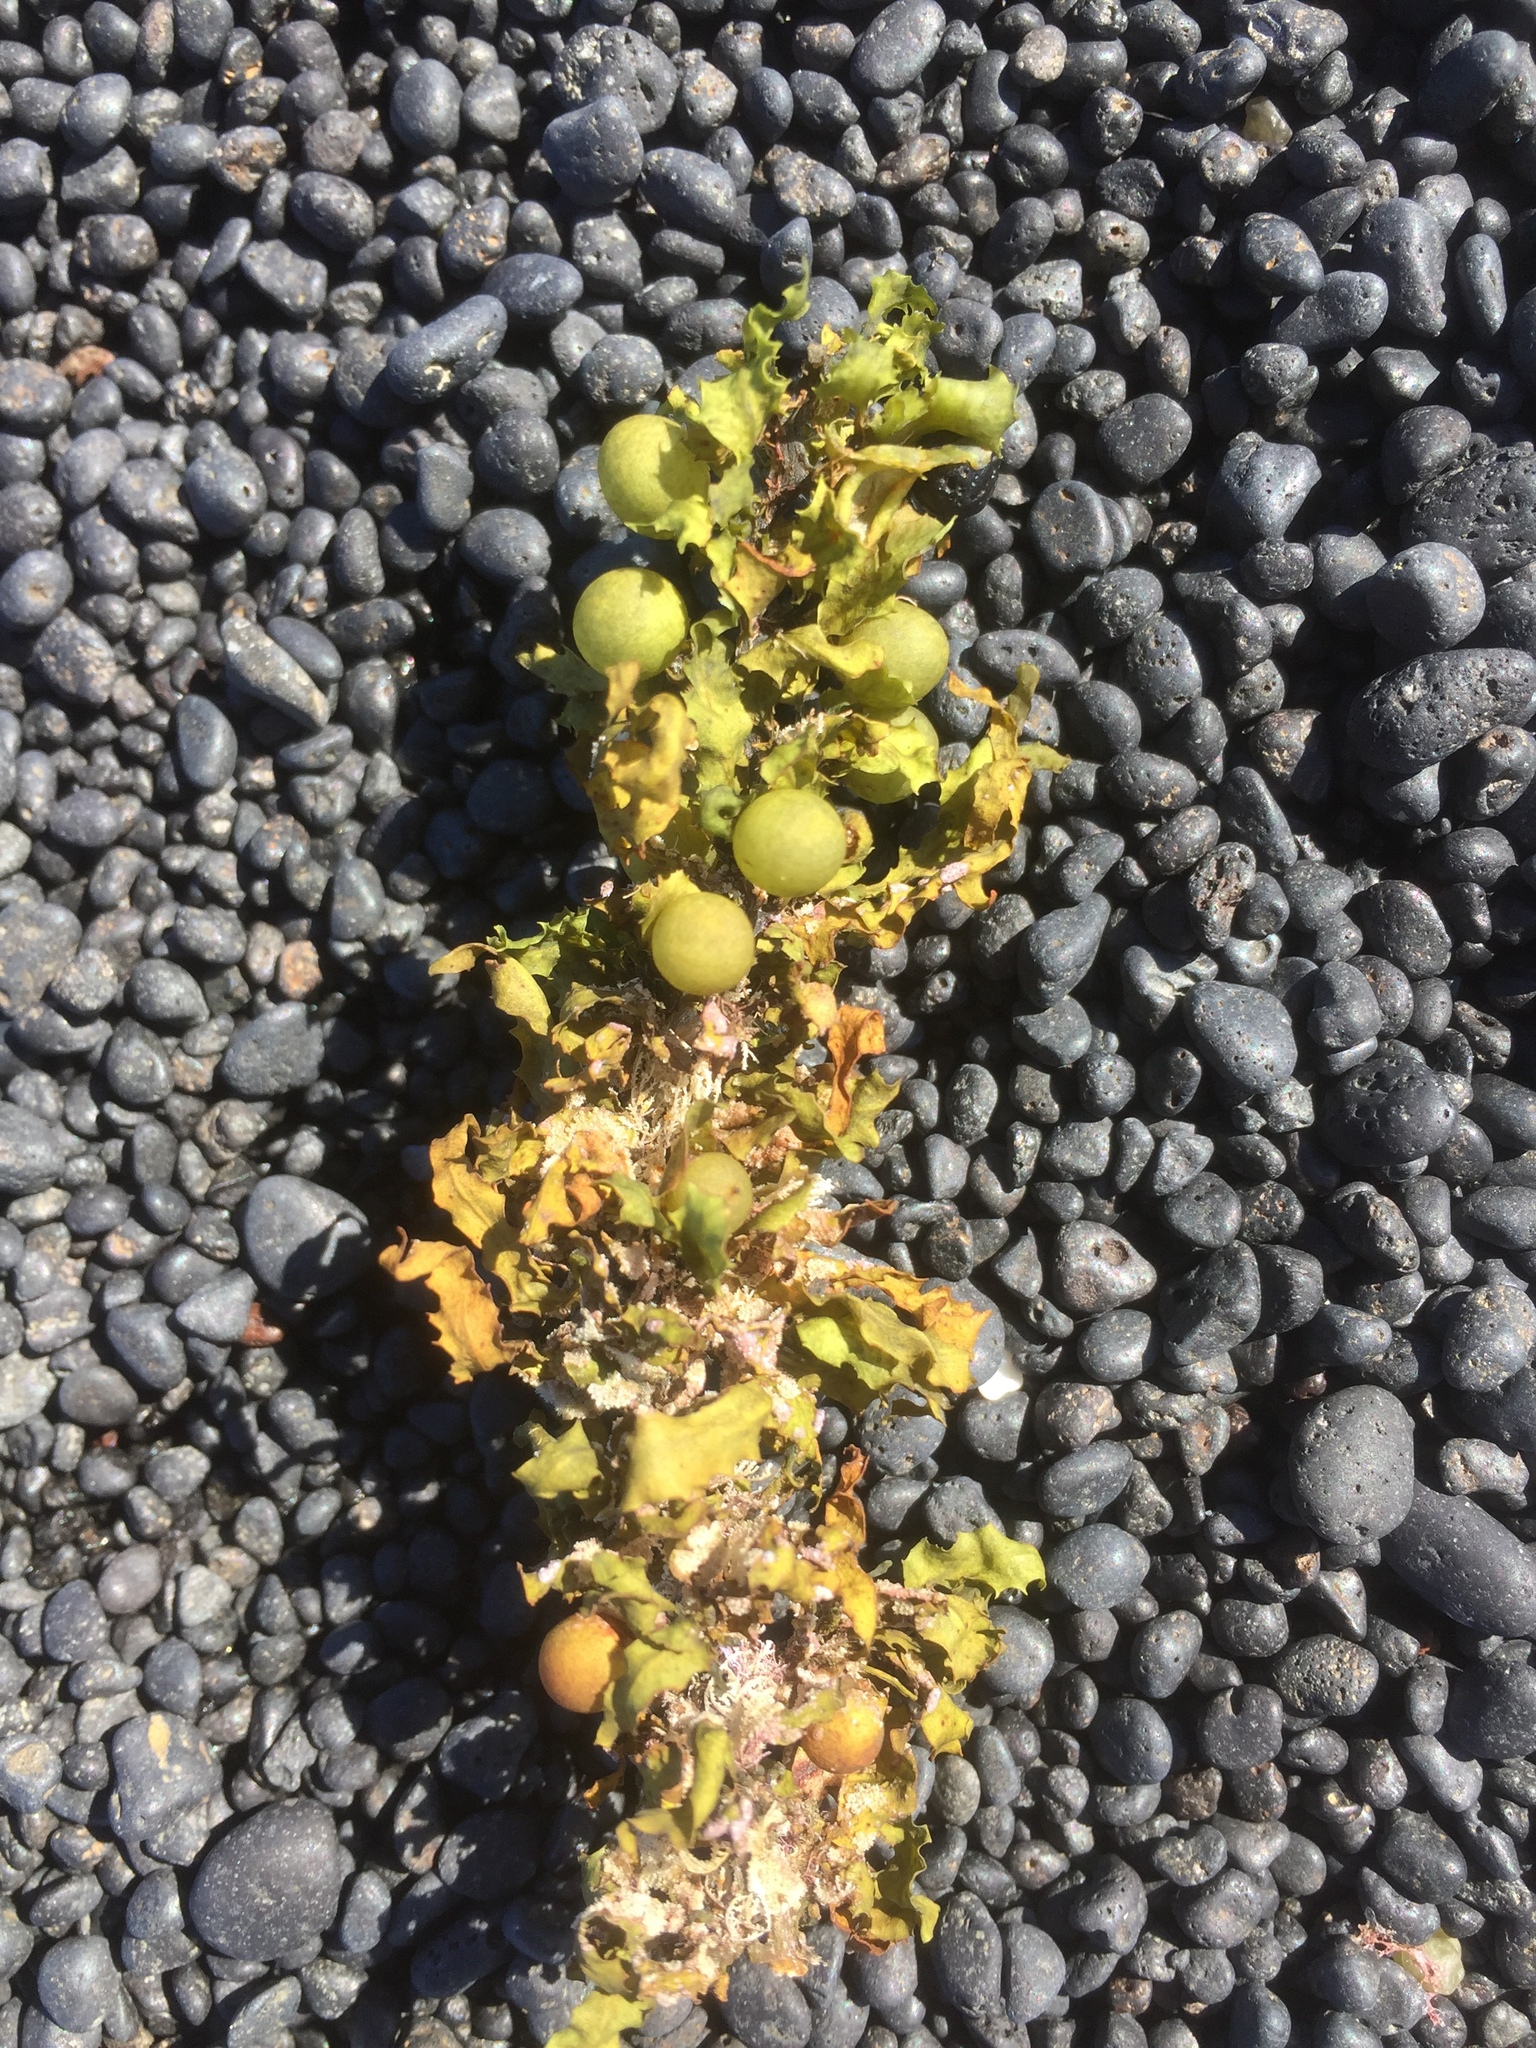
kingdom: Chromista
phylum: Ochrophyta
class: Phaeophyceae
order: Fucales
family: Sargassaceae
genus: Sargassum
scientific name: Sargassum fluitans
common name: Sargassum seaweed
